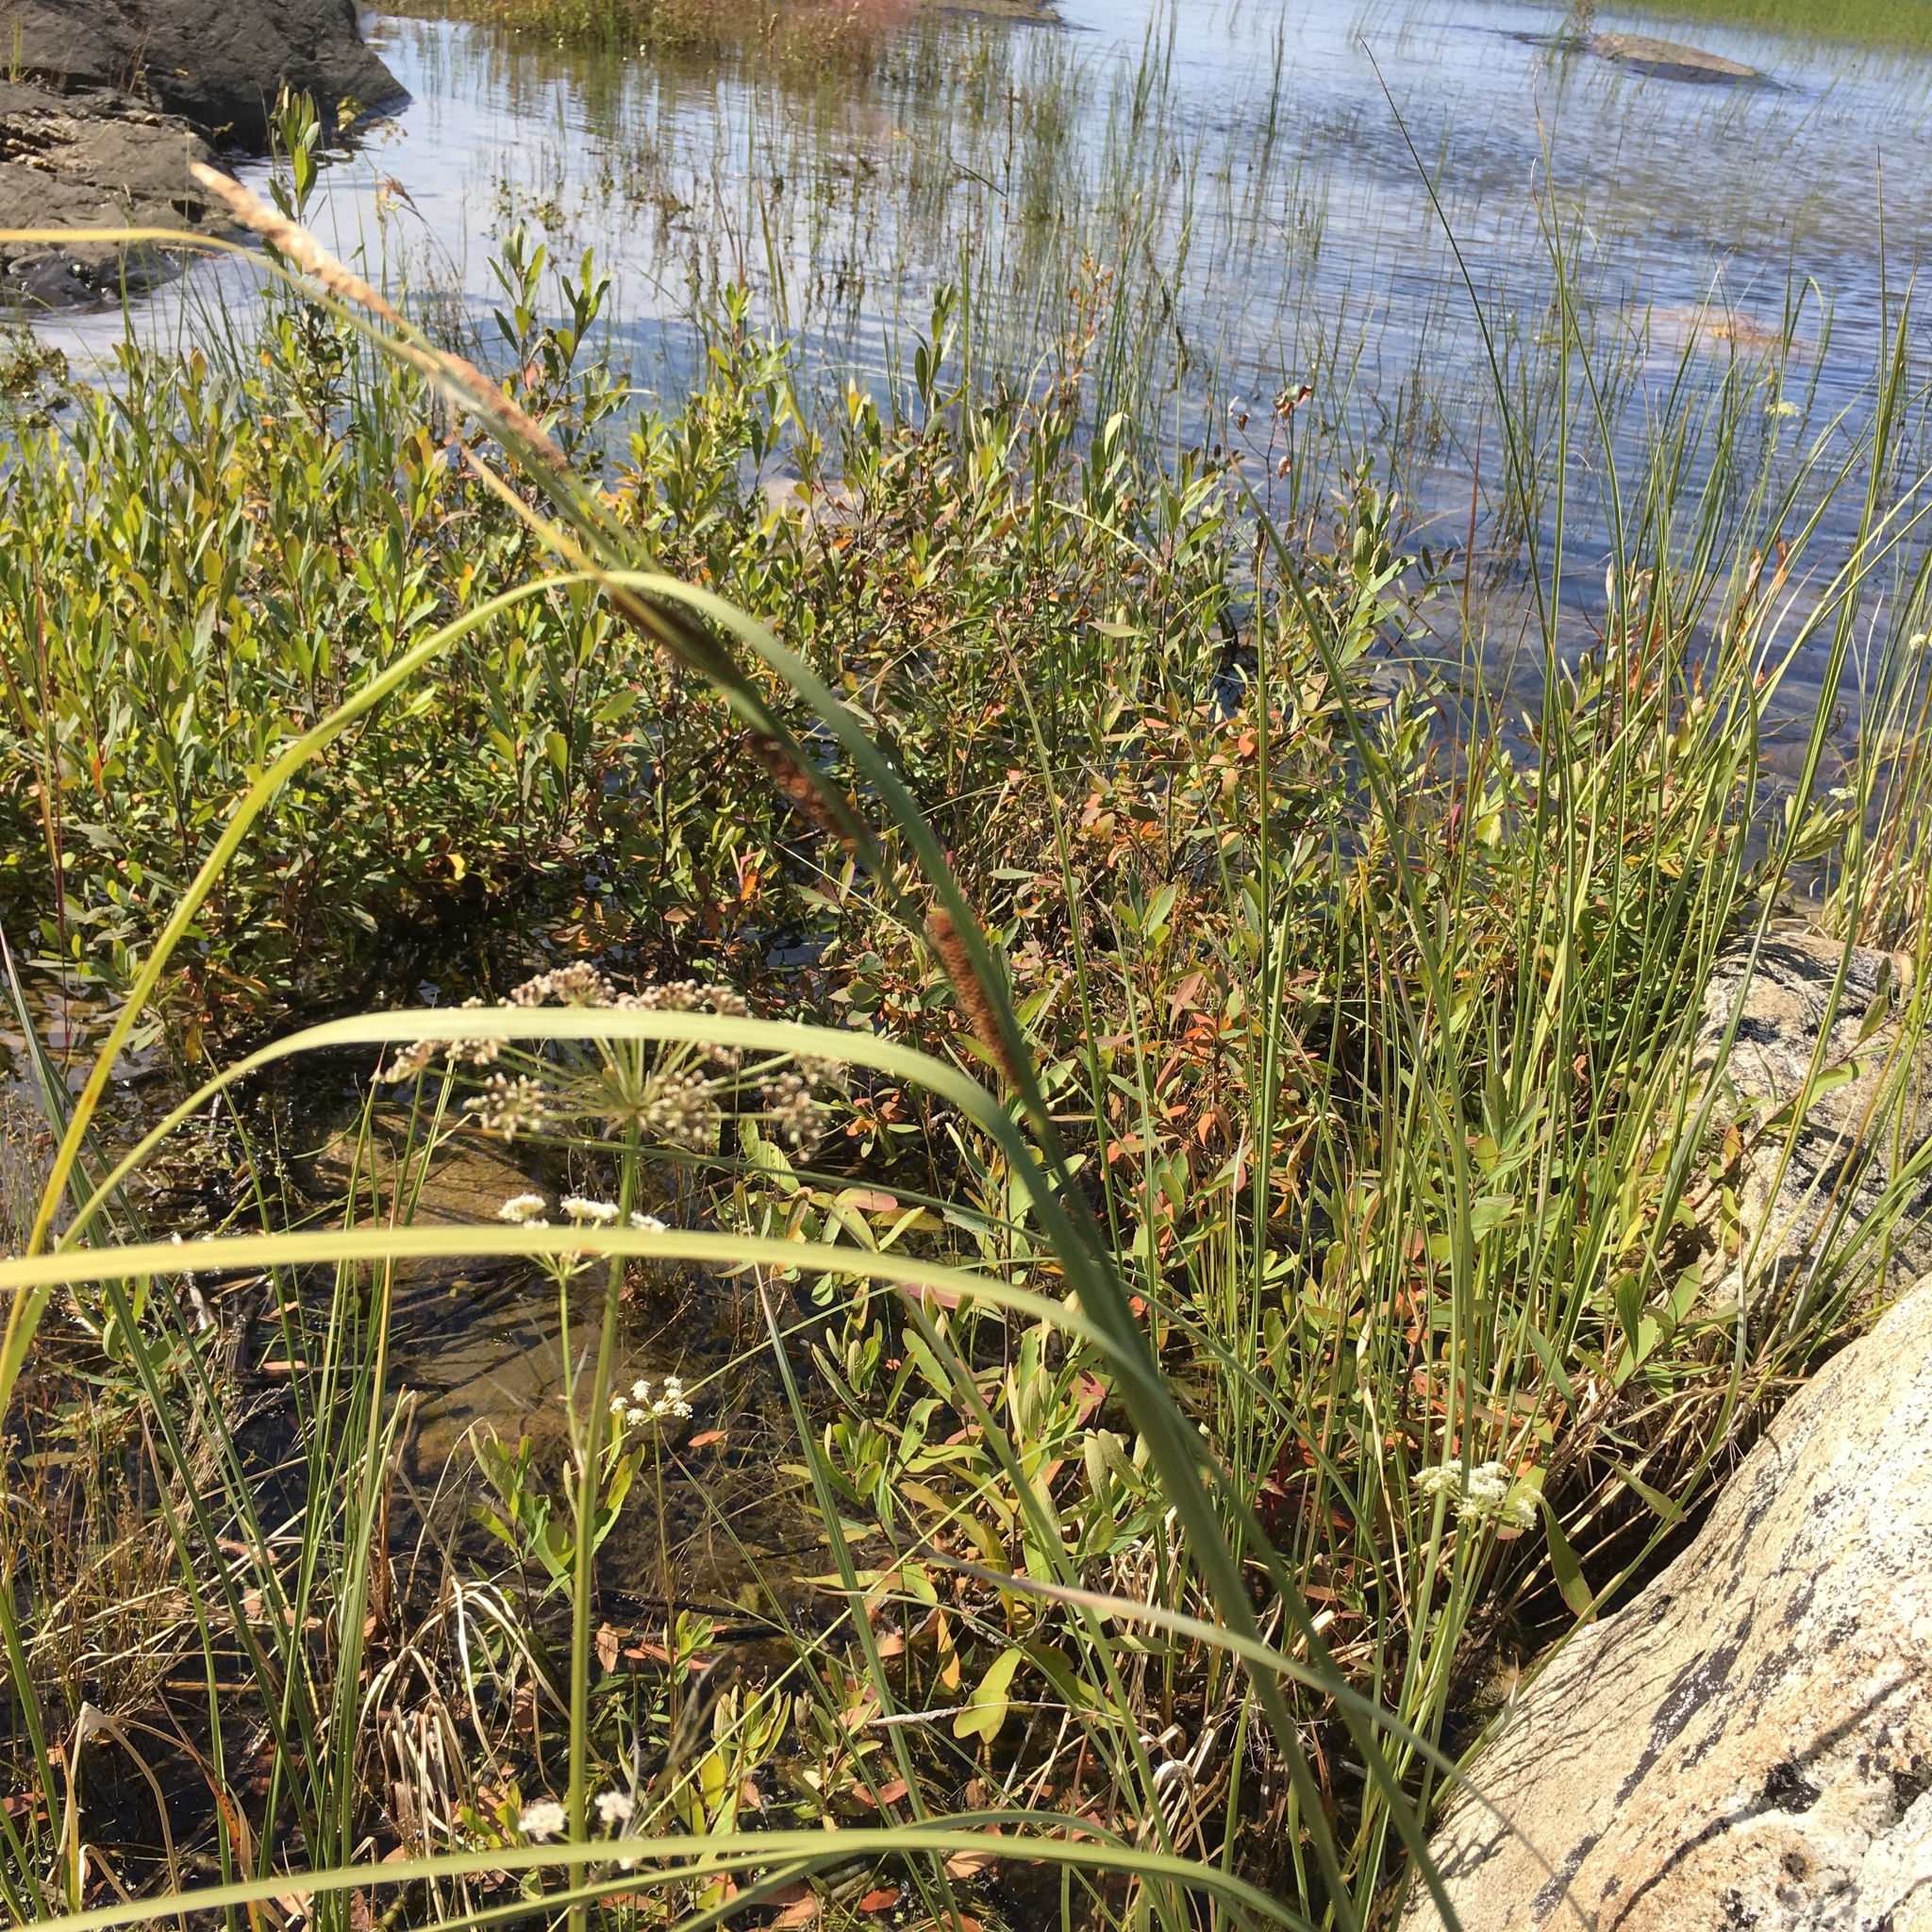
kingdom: Plantae
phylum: Tracheophyta
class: Liliopsida
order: Poales
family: Cyperaceae
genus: Carex
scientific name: Carex aquatilis
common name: Water sedge
